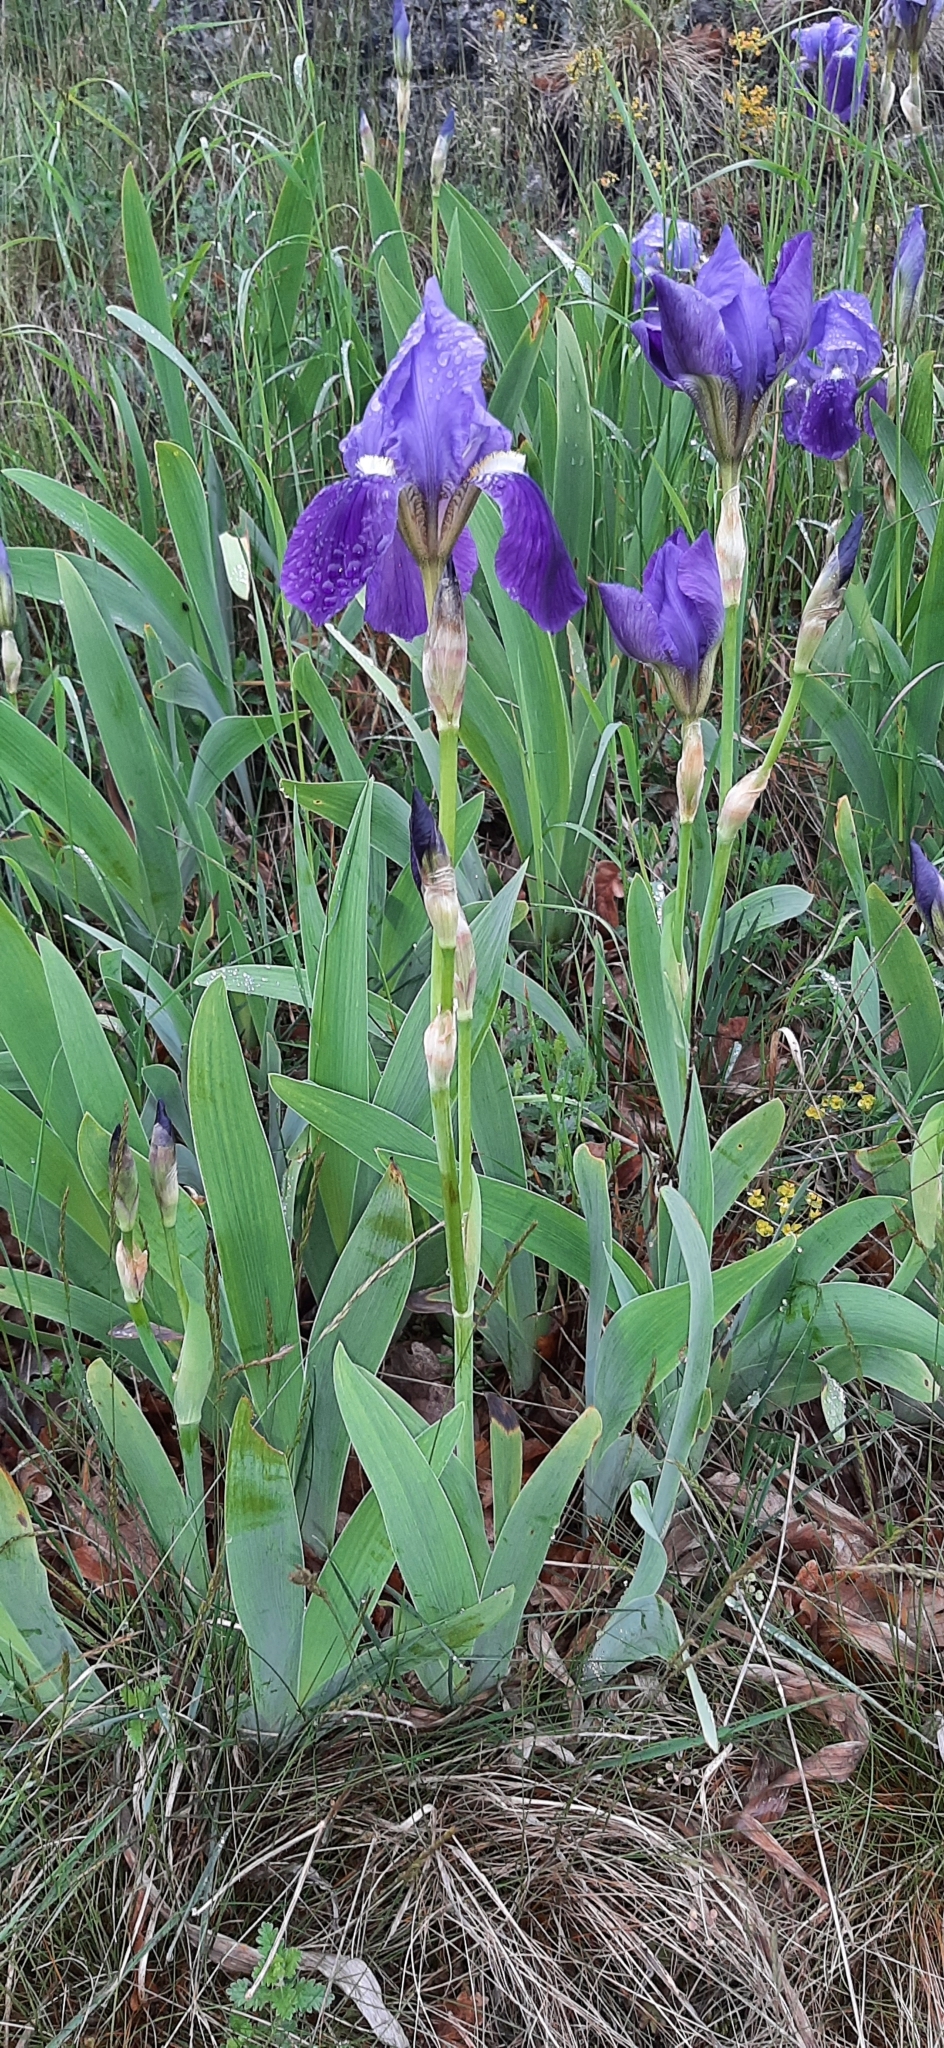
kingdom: Plantae
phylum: Tracheophyta
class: Liliopsida
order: Asparagales
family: Iridaceae
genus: Iris
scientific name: Iris germanica
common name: German iris
